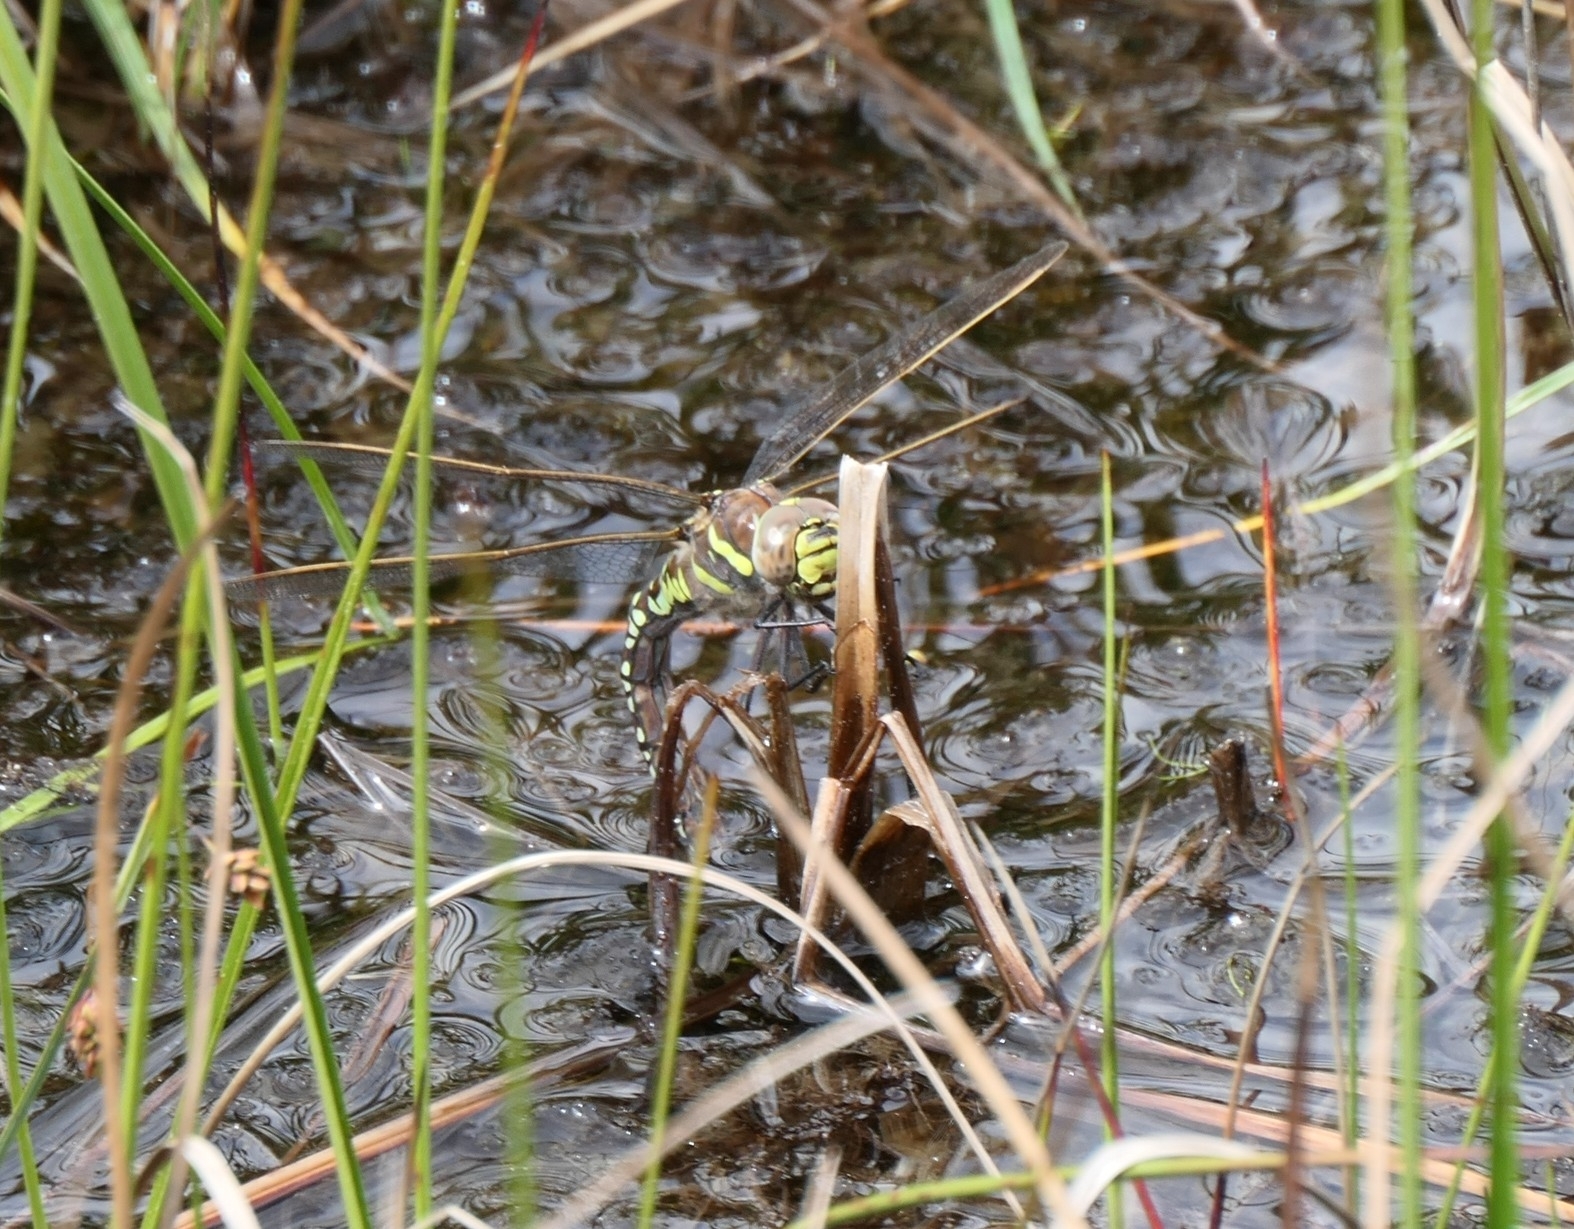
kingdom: Animalia
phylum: Arthropoda
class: Insecta
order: Odonata
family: Aeshnidae
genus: Aeshna
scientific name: Aeshna juncea
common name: Moorland hawker
